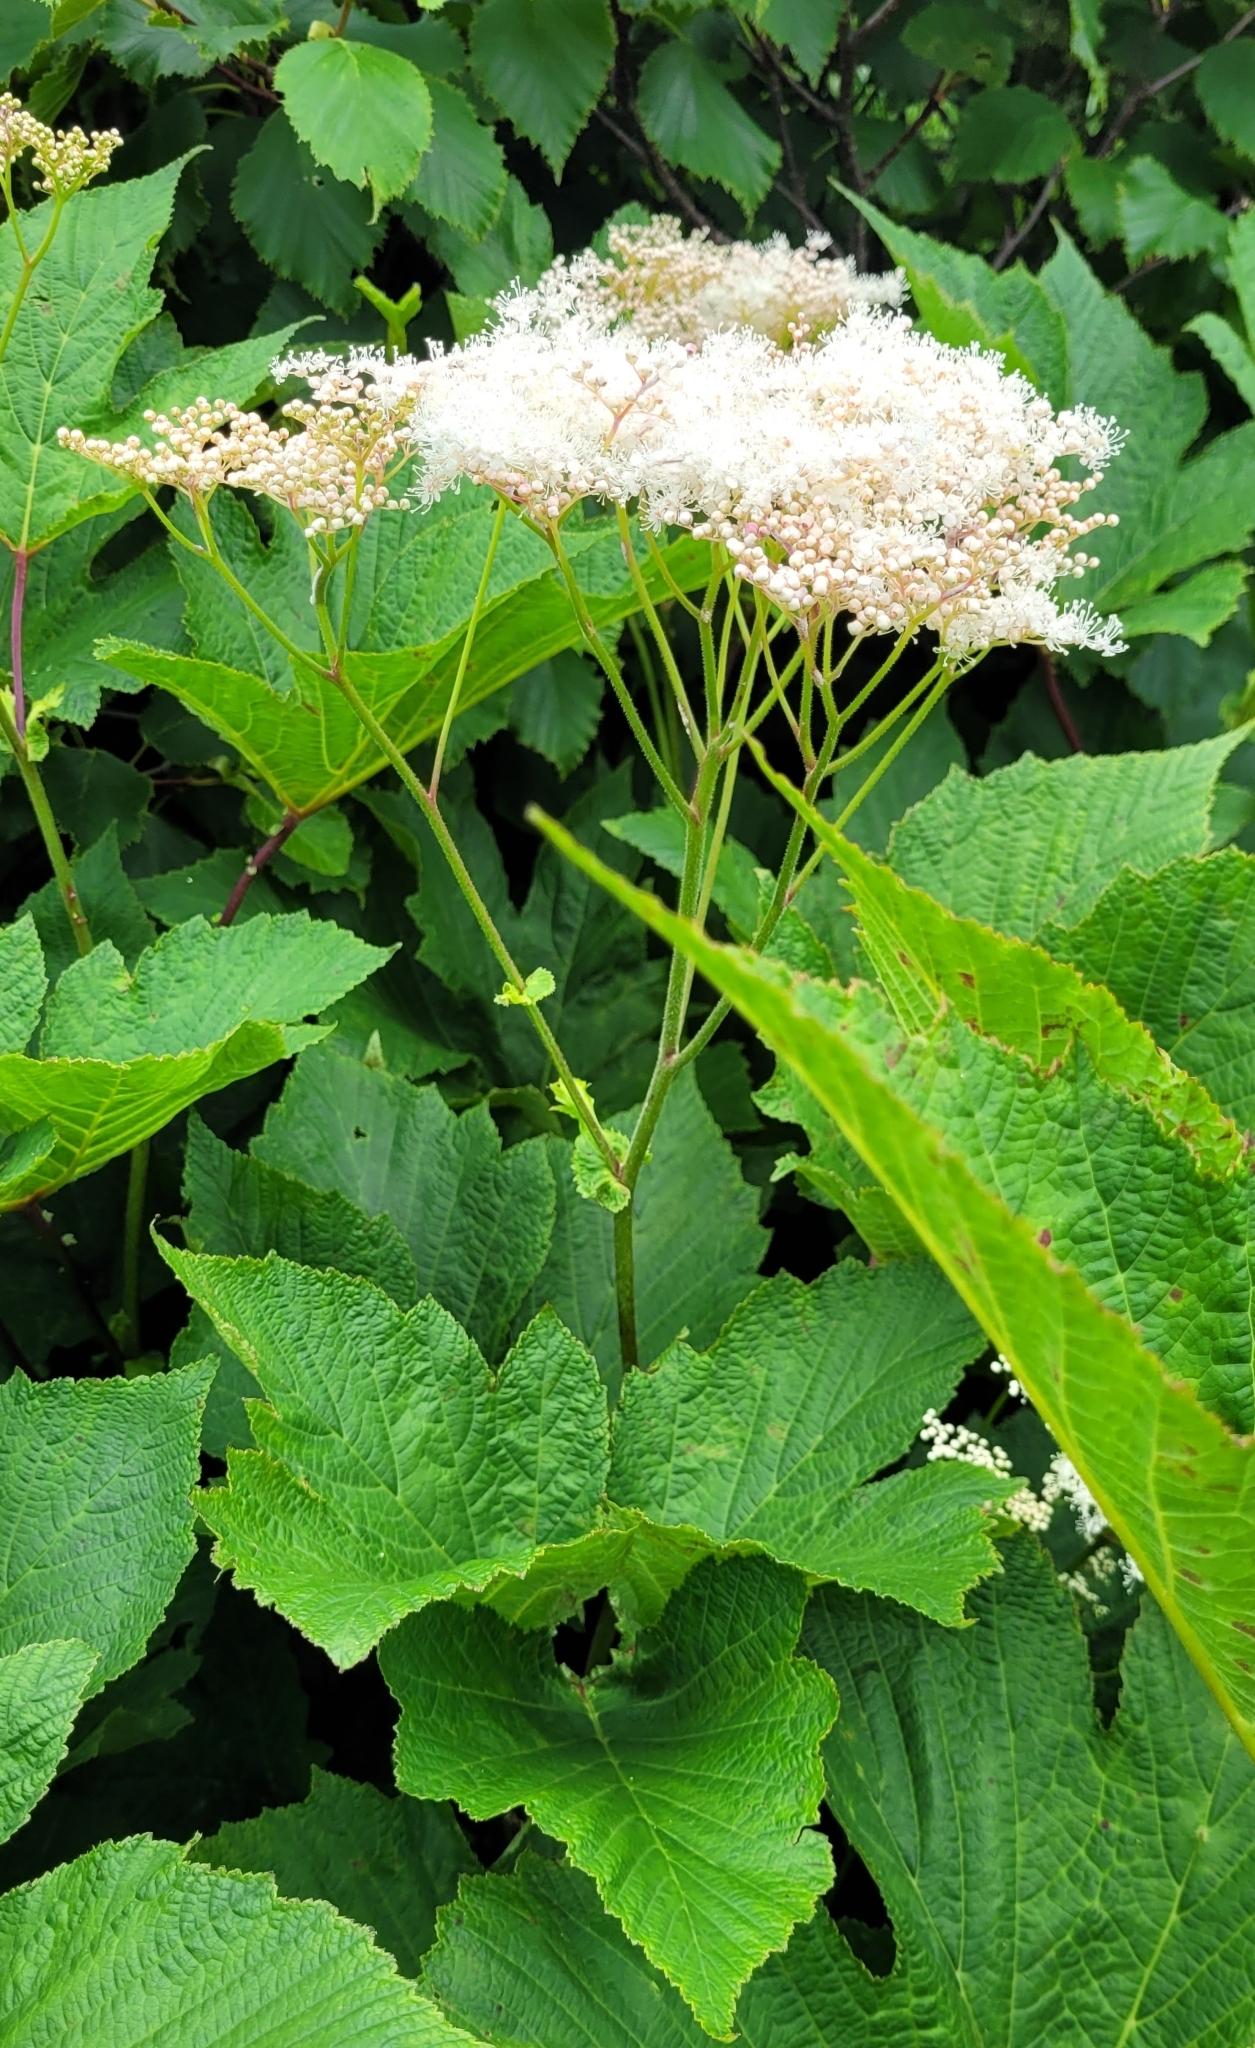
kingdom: Plantae
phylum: Tracheophyta
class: Magnoliopsida
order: Rosales
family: Rosaceae
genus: Filipendula
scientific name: Filipendula camtschatica
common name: Giant meadowsweet
